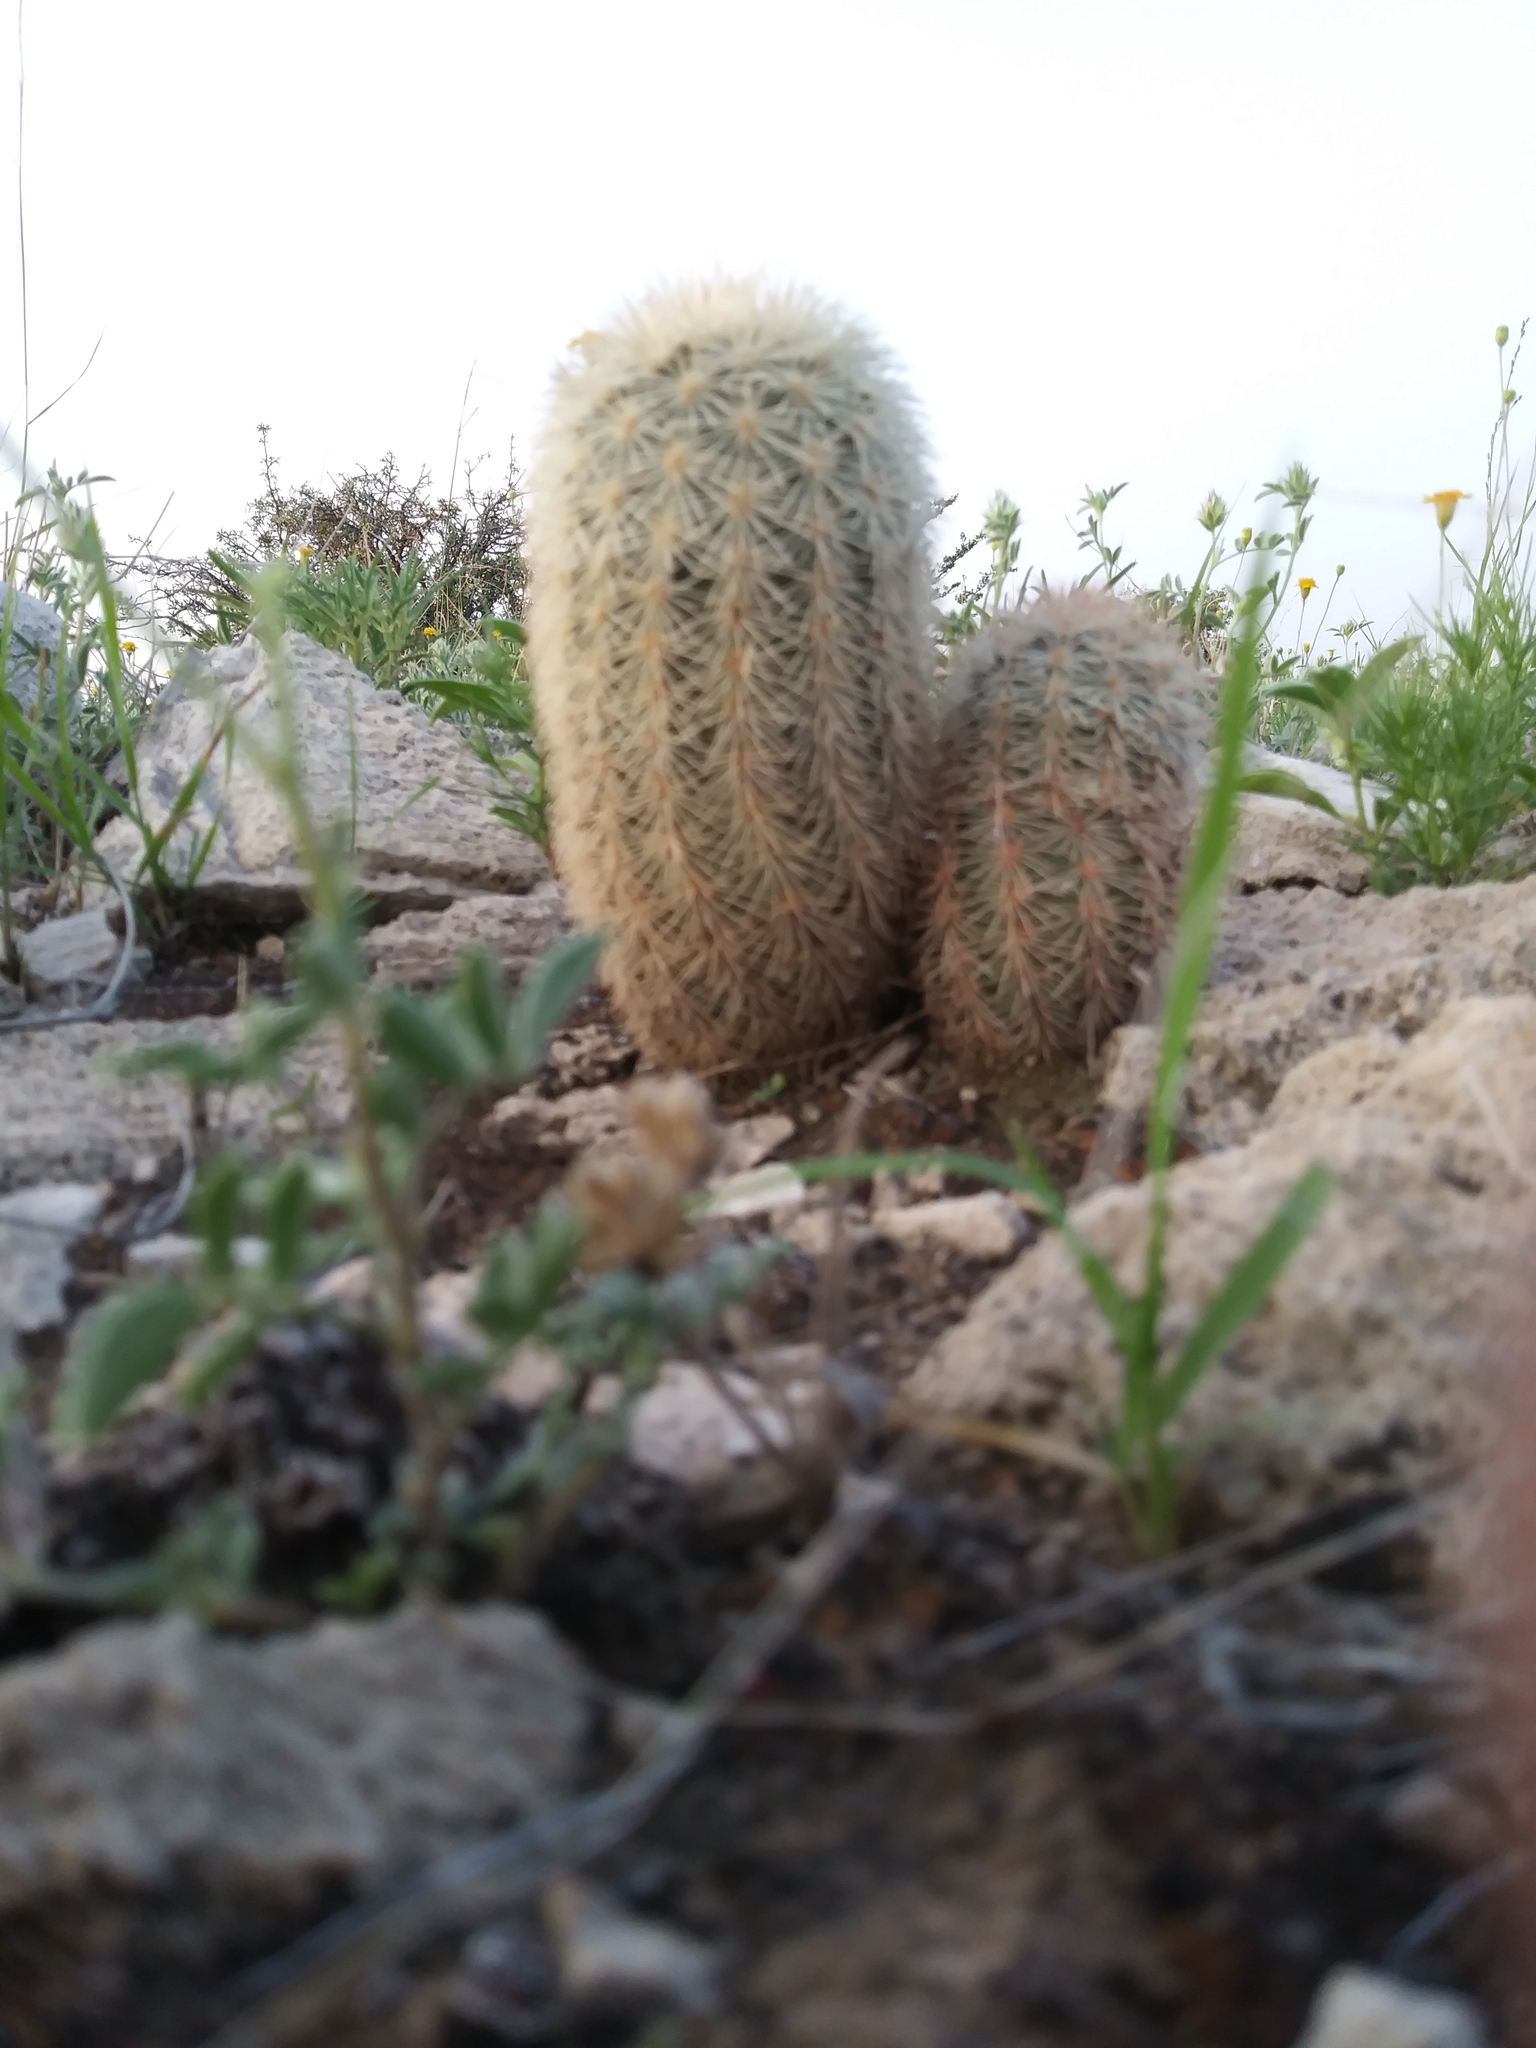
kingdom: Plantae
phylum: Tracheophyta
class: Magnoliopsida
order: Caryophyllales
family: Cactaceae
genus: Echinocereus
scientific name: Echinocereus dasyacanthus
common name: Spiny hedgehog cactus
